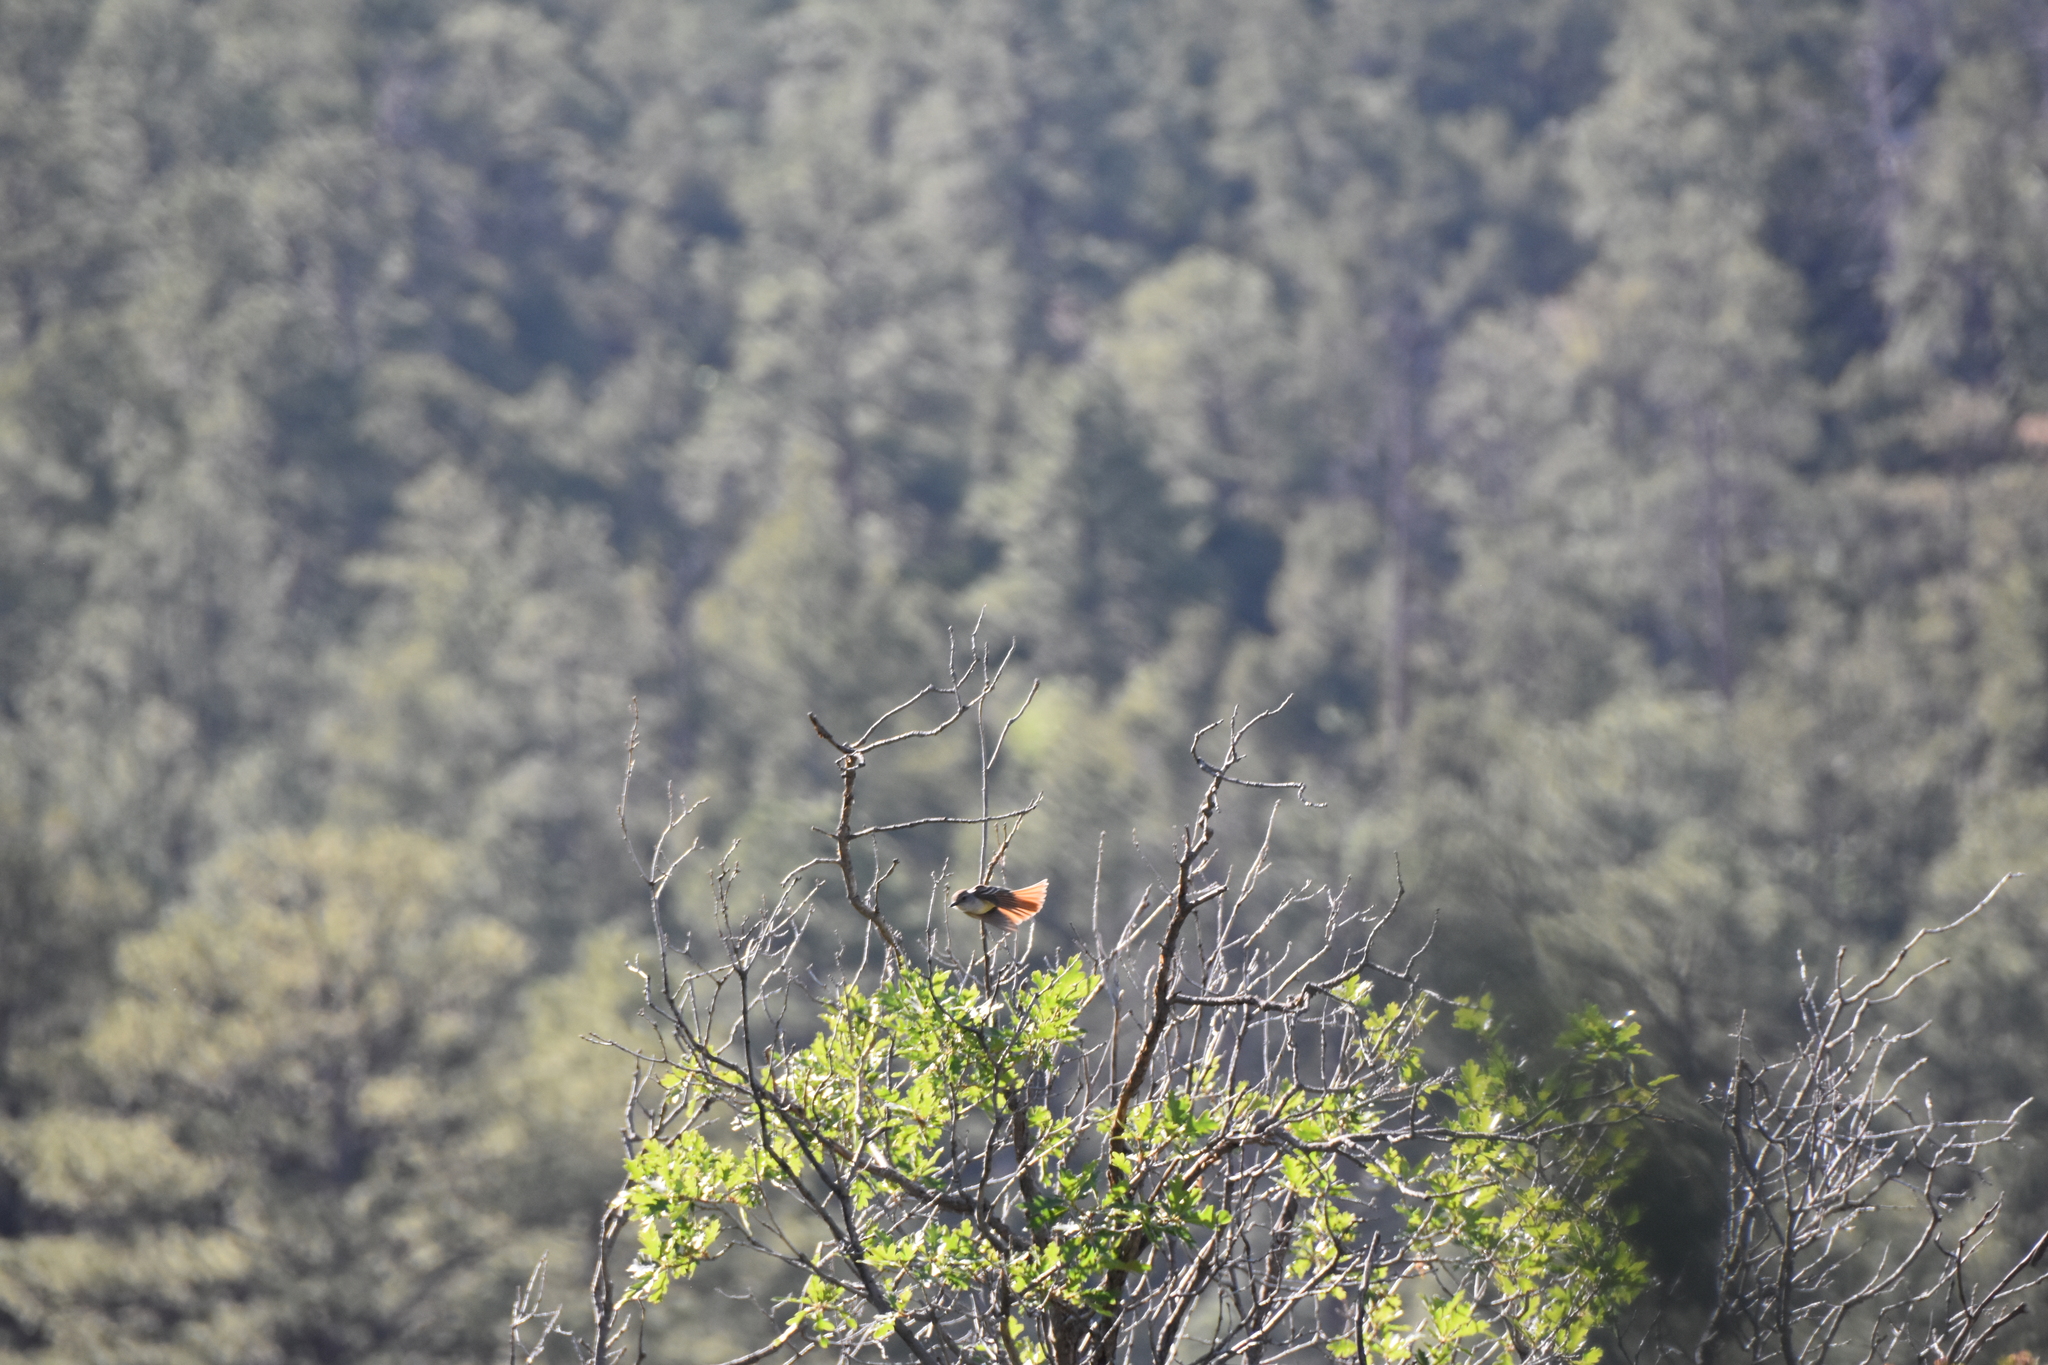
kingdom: Animalia
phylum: Chordata
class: Aves
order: Passeriformes
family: Tyrannidae
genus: Myiarchus
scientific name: Myiarchus cinerascens
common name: Ash-throated flycatcher
